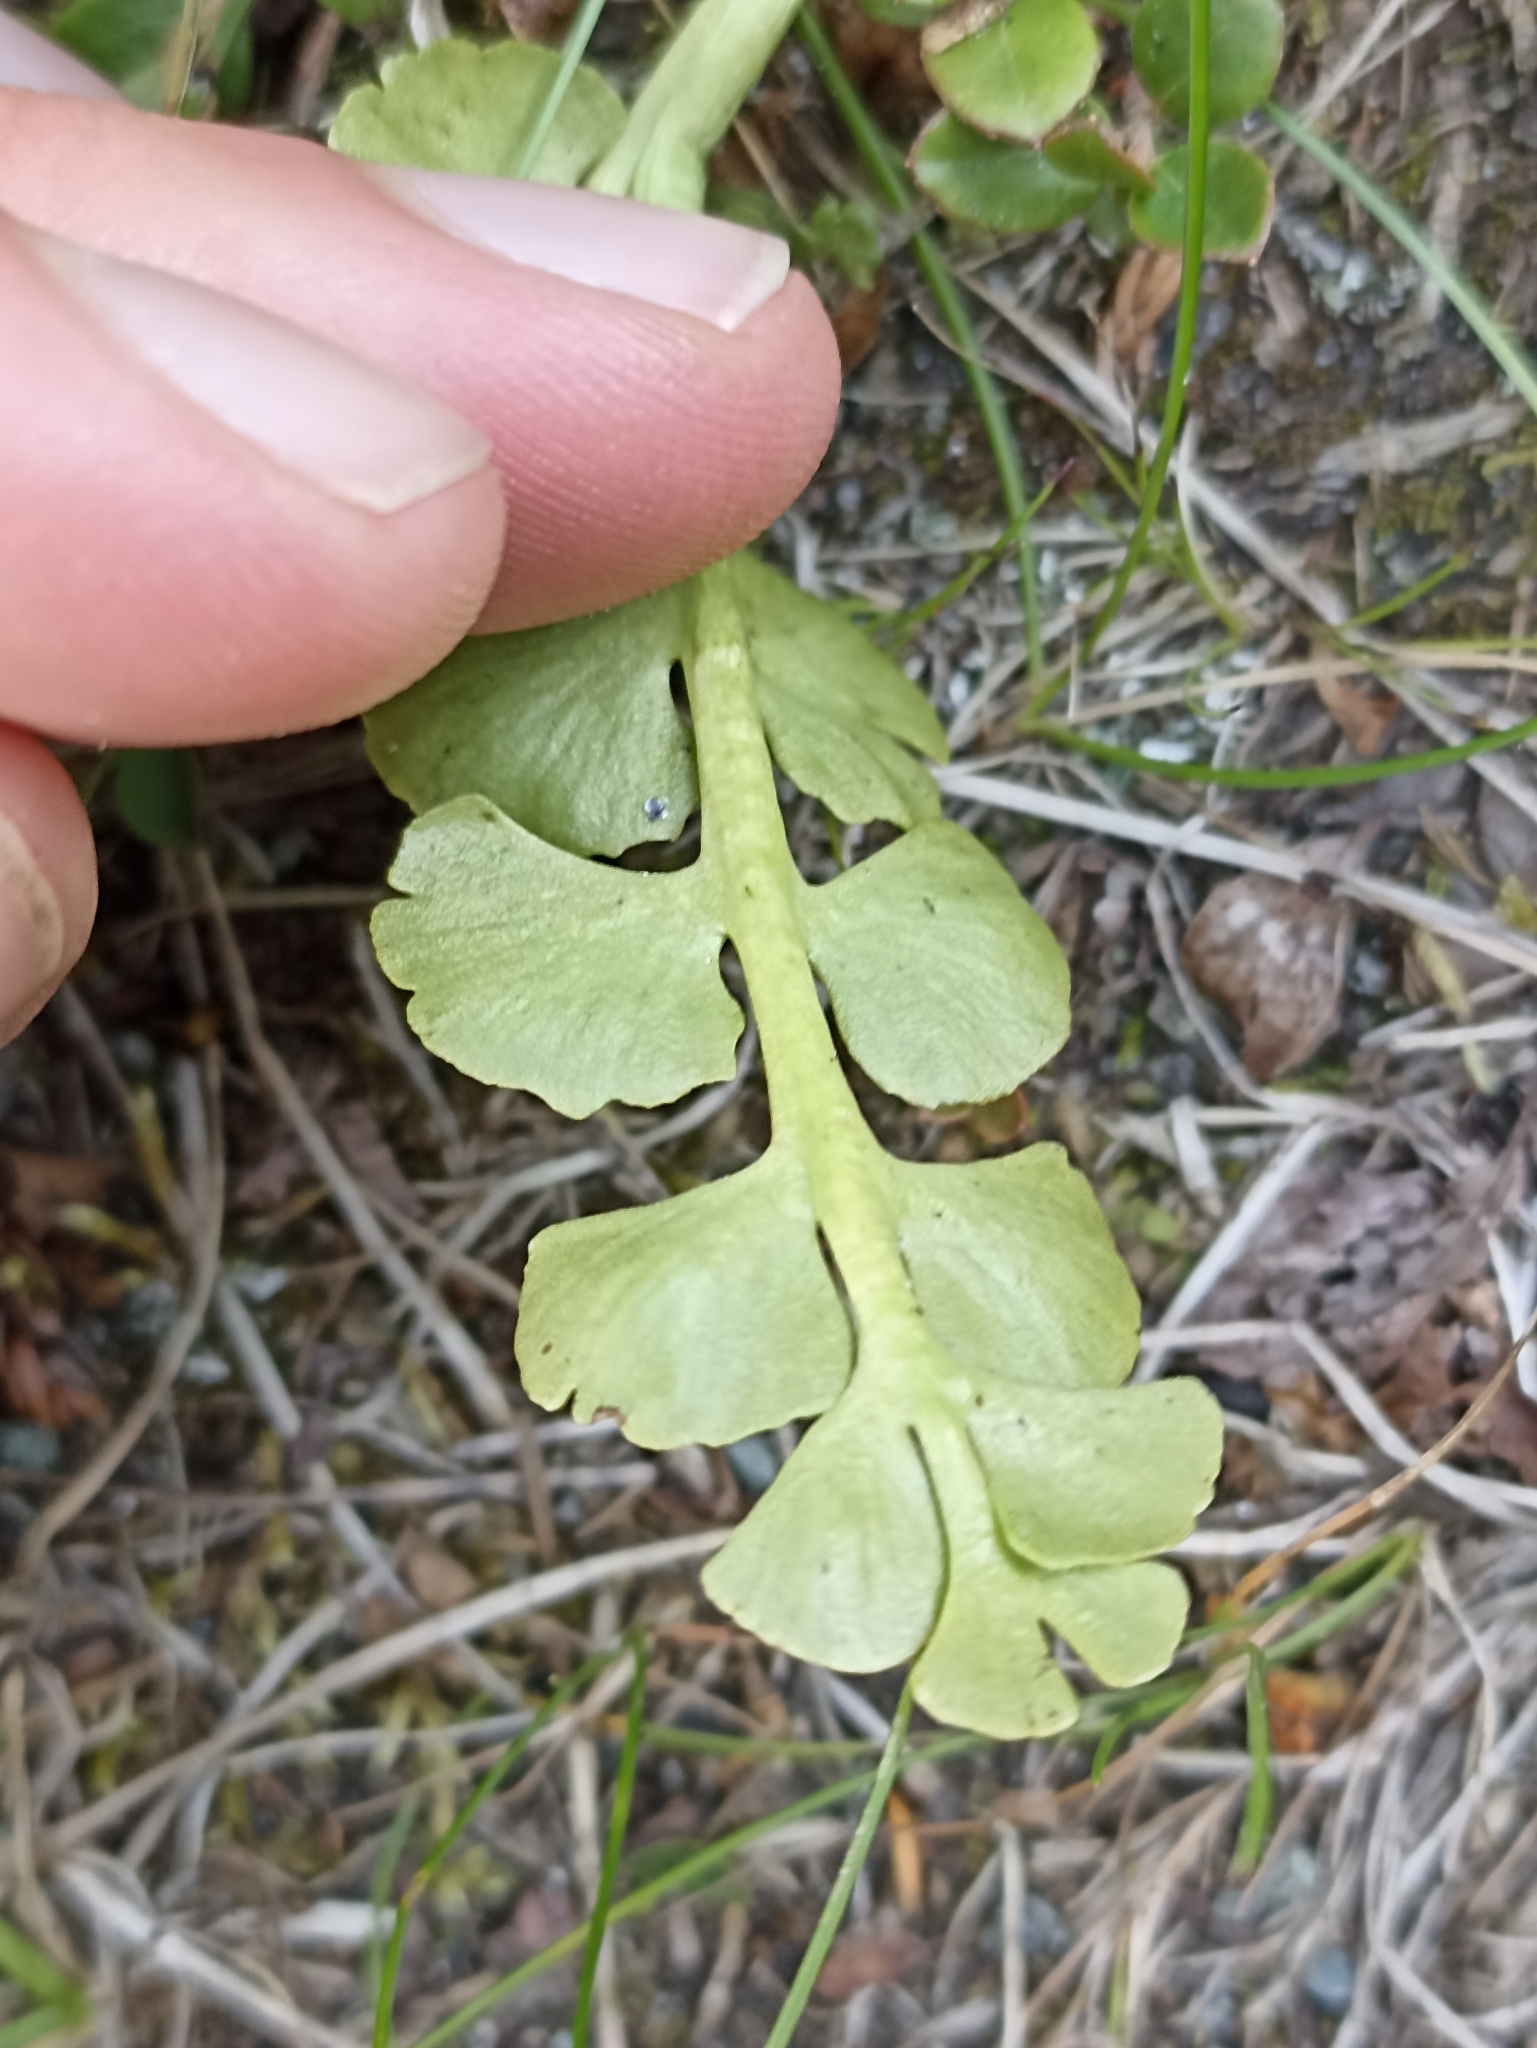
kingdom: Plantae
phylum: Tracheophyta
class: Polypodiopsida
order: Ophioglossales
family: Ophioglossaceae
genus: Botrychium
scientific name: Botrychium lunaria
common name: Moonwort
